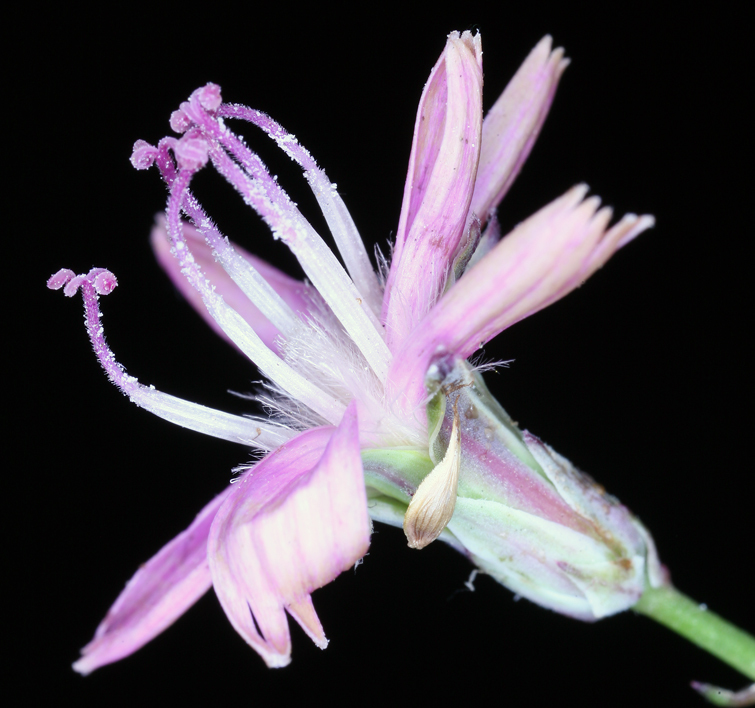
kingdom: Plantae
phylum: Tracheophyta
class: Magnoliopsida
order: Asterales
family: Asteraceae
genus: Stephanomeria
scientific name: Stephanomeria tenuifolia
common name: Slender wirelettuce
